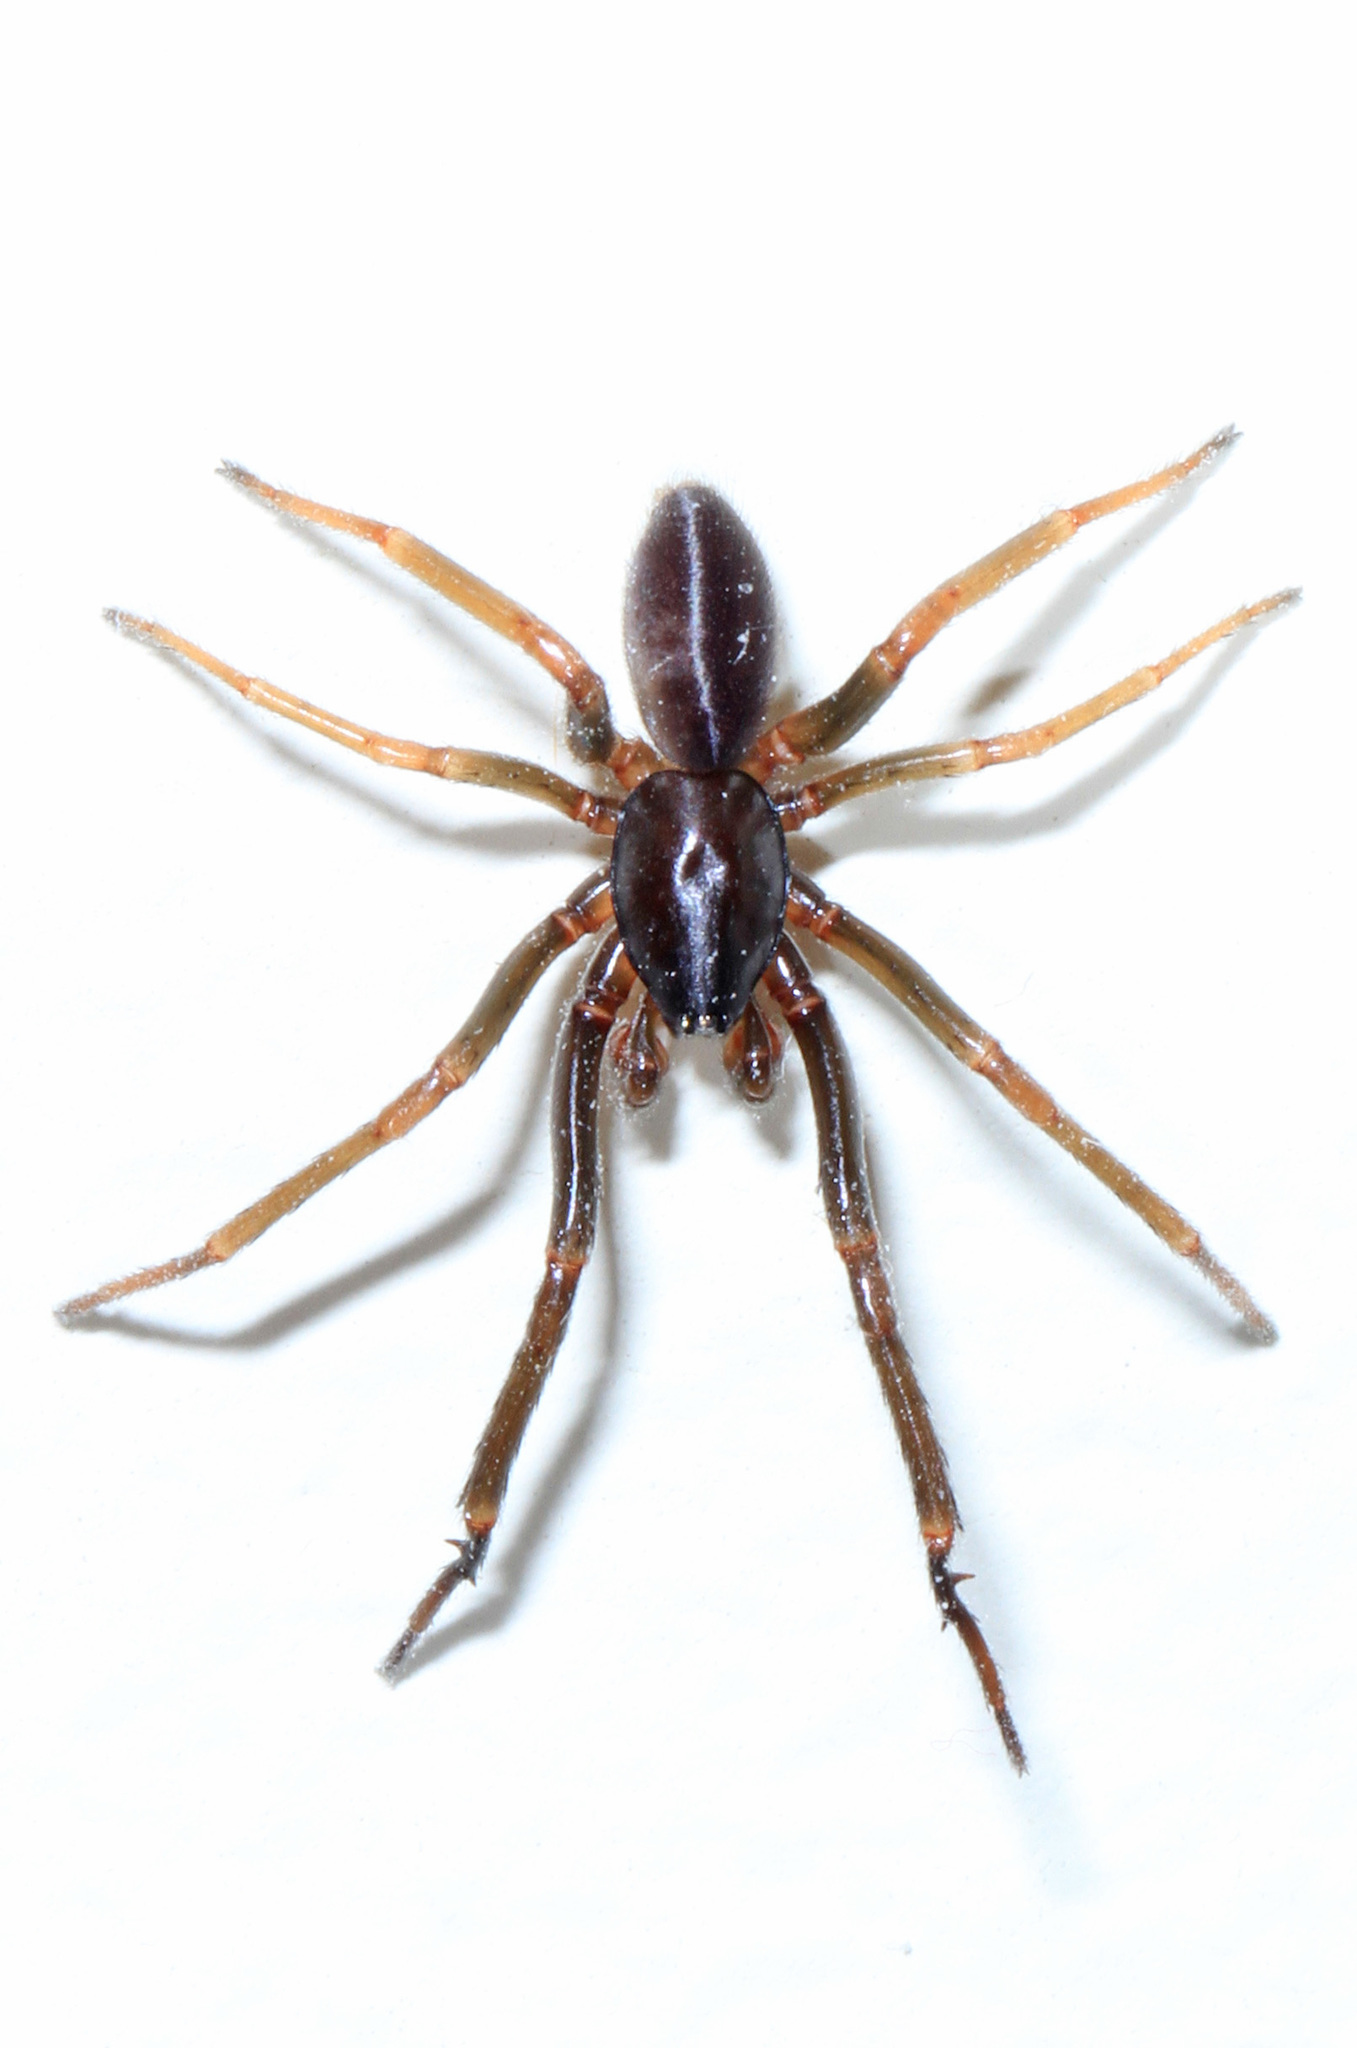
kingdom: Animalia
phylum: Arthropoda
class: Arachnida
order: Araneae
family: Segestriidae
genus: Ariadna
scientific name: Ariadna bicolor
